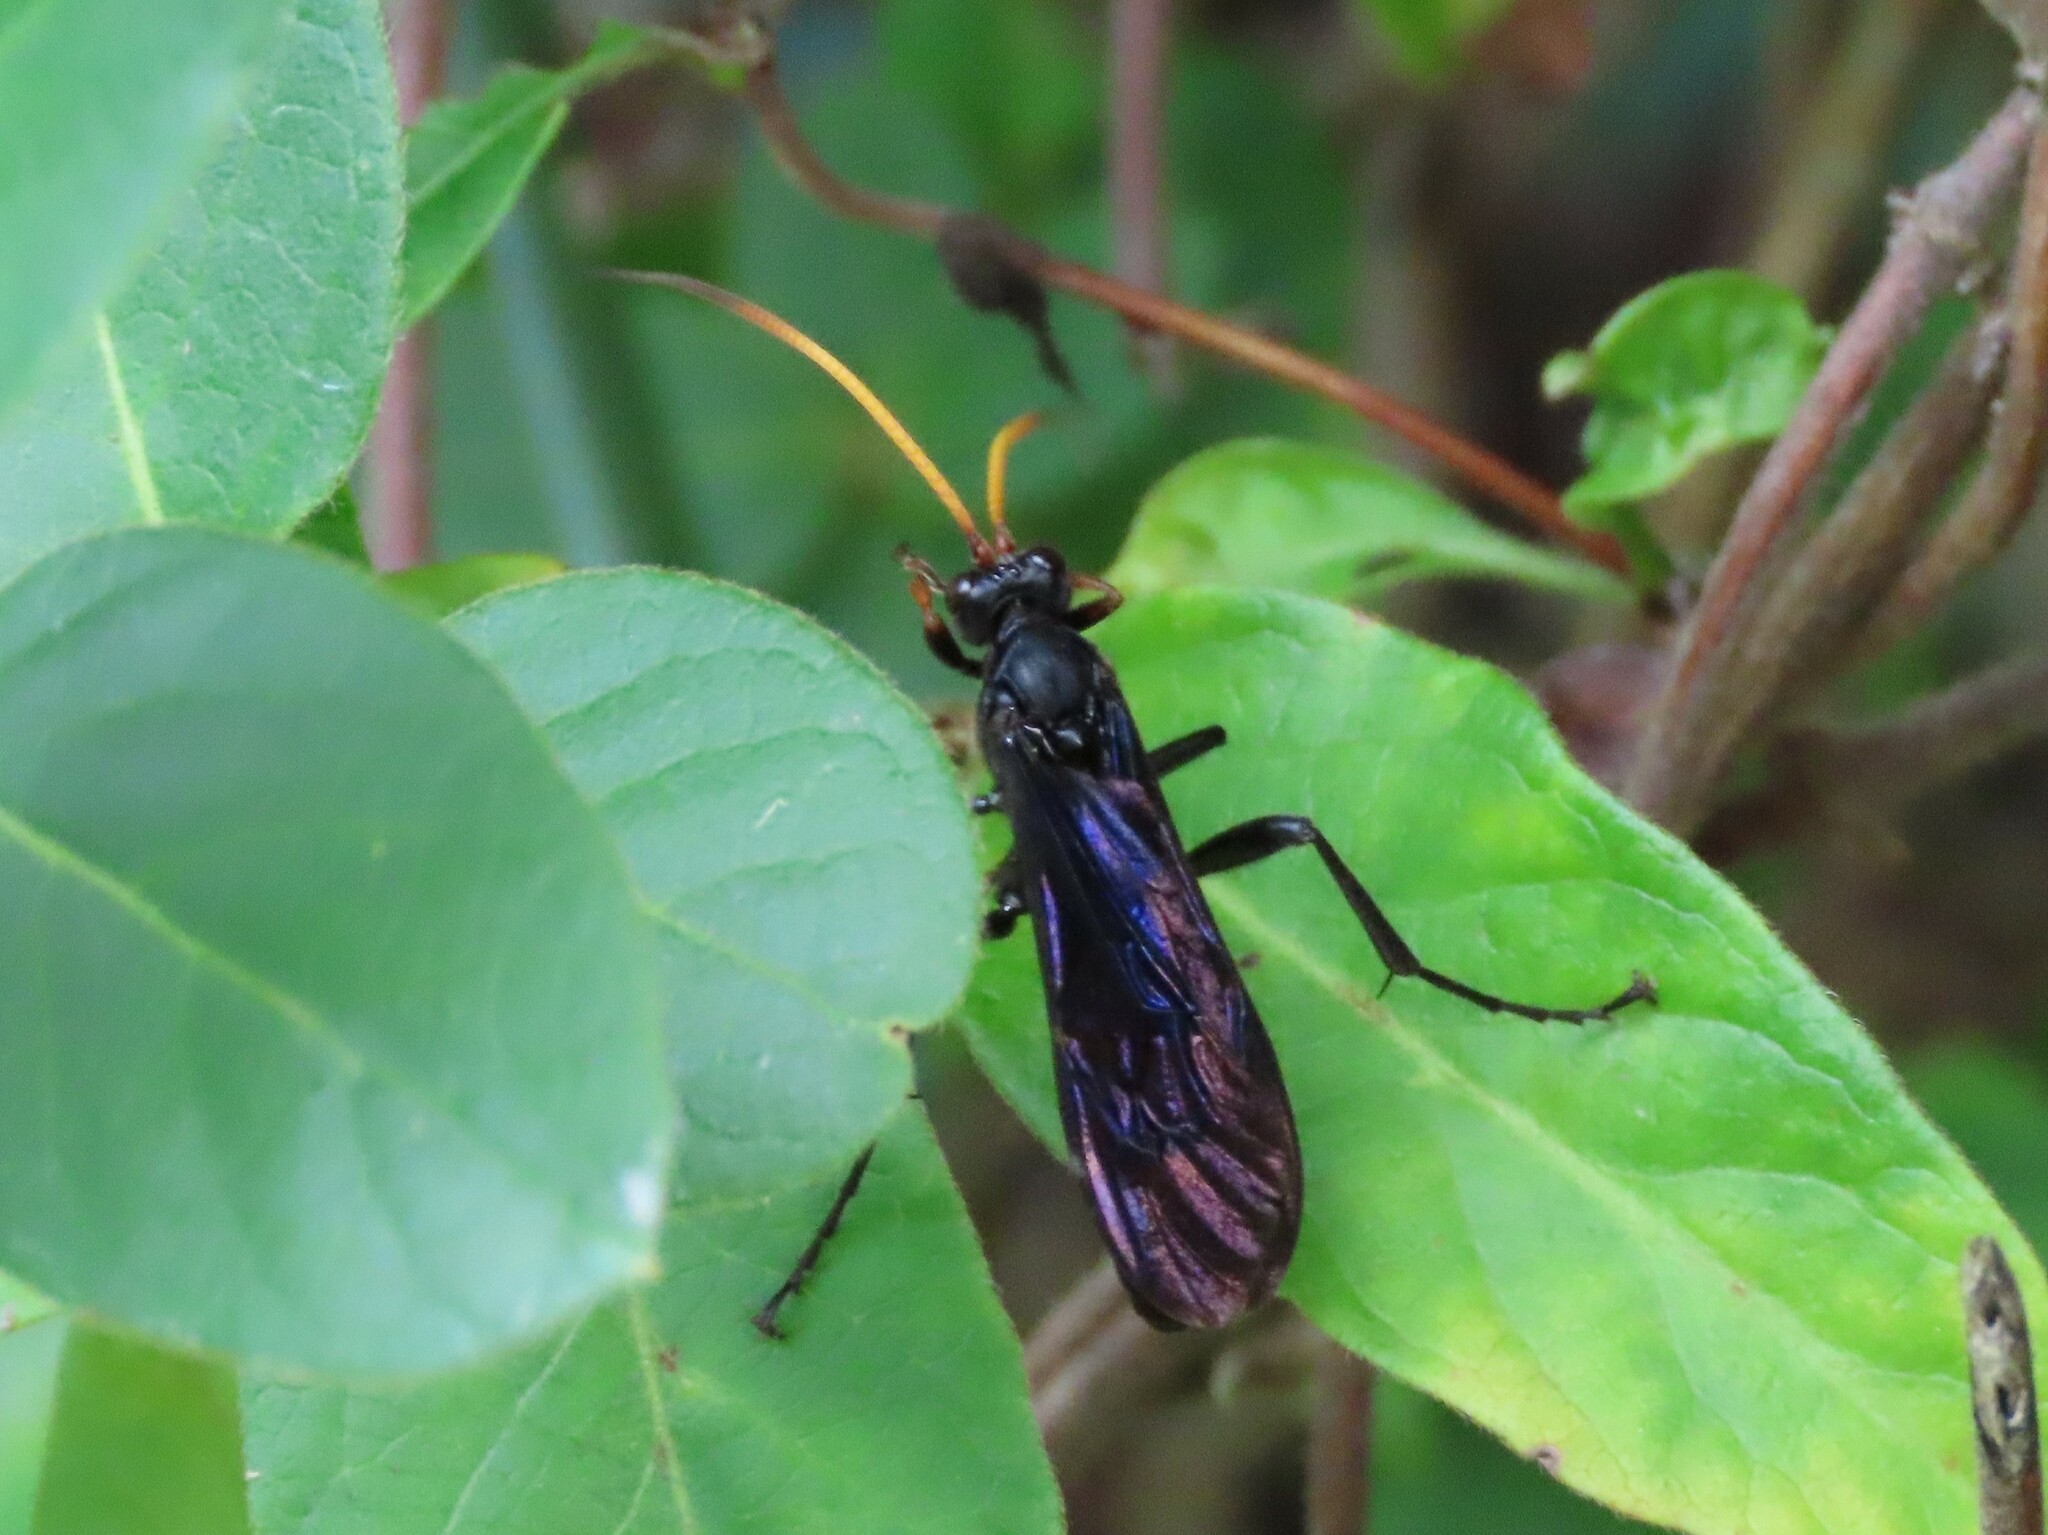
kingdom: Animalia
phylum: Arthropoda
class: Insecta
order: Hymenoptera
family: Ichneumonidae
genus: Gnamptopelta
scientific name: Gnamptopelta obsidianator
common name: Bent-shielded besieger wasp
